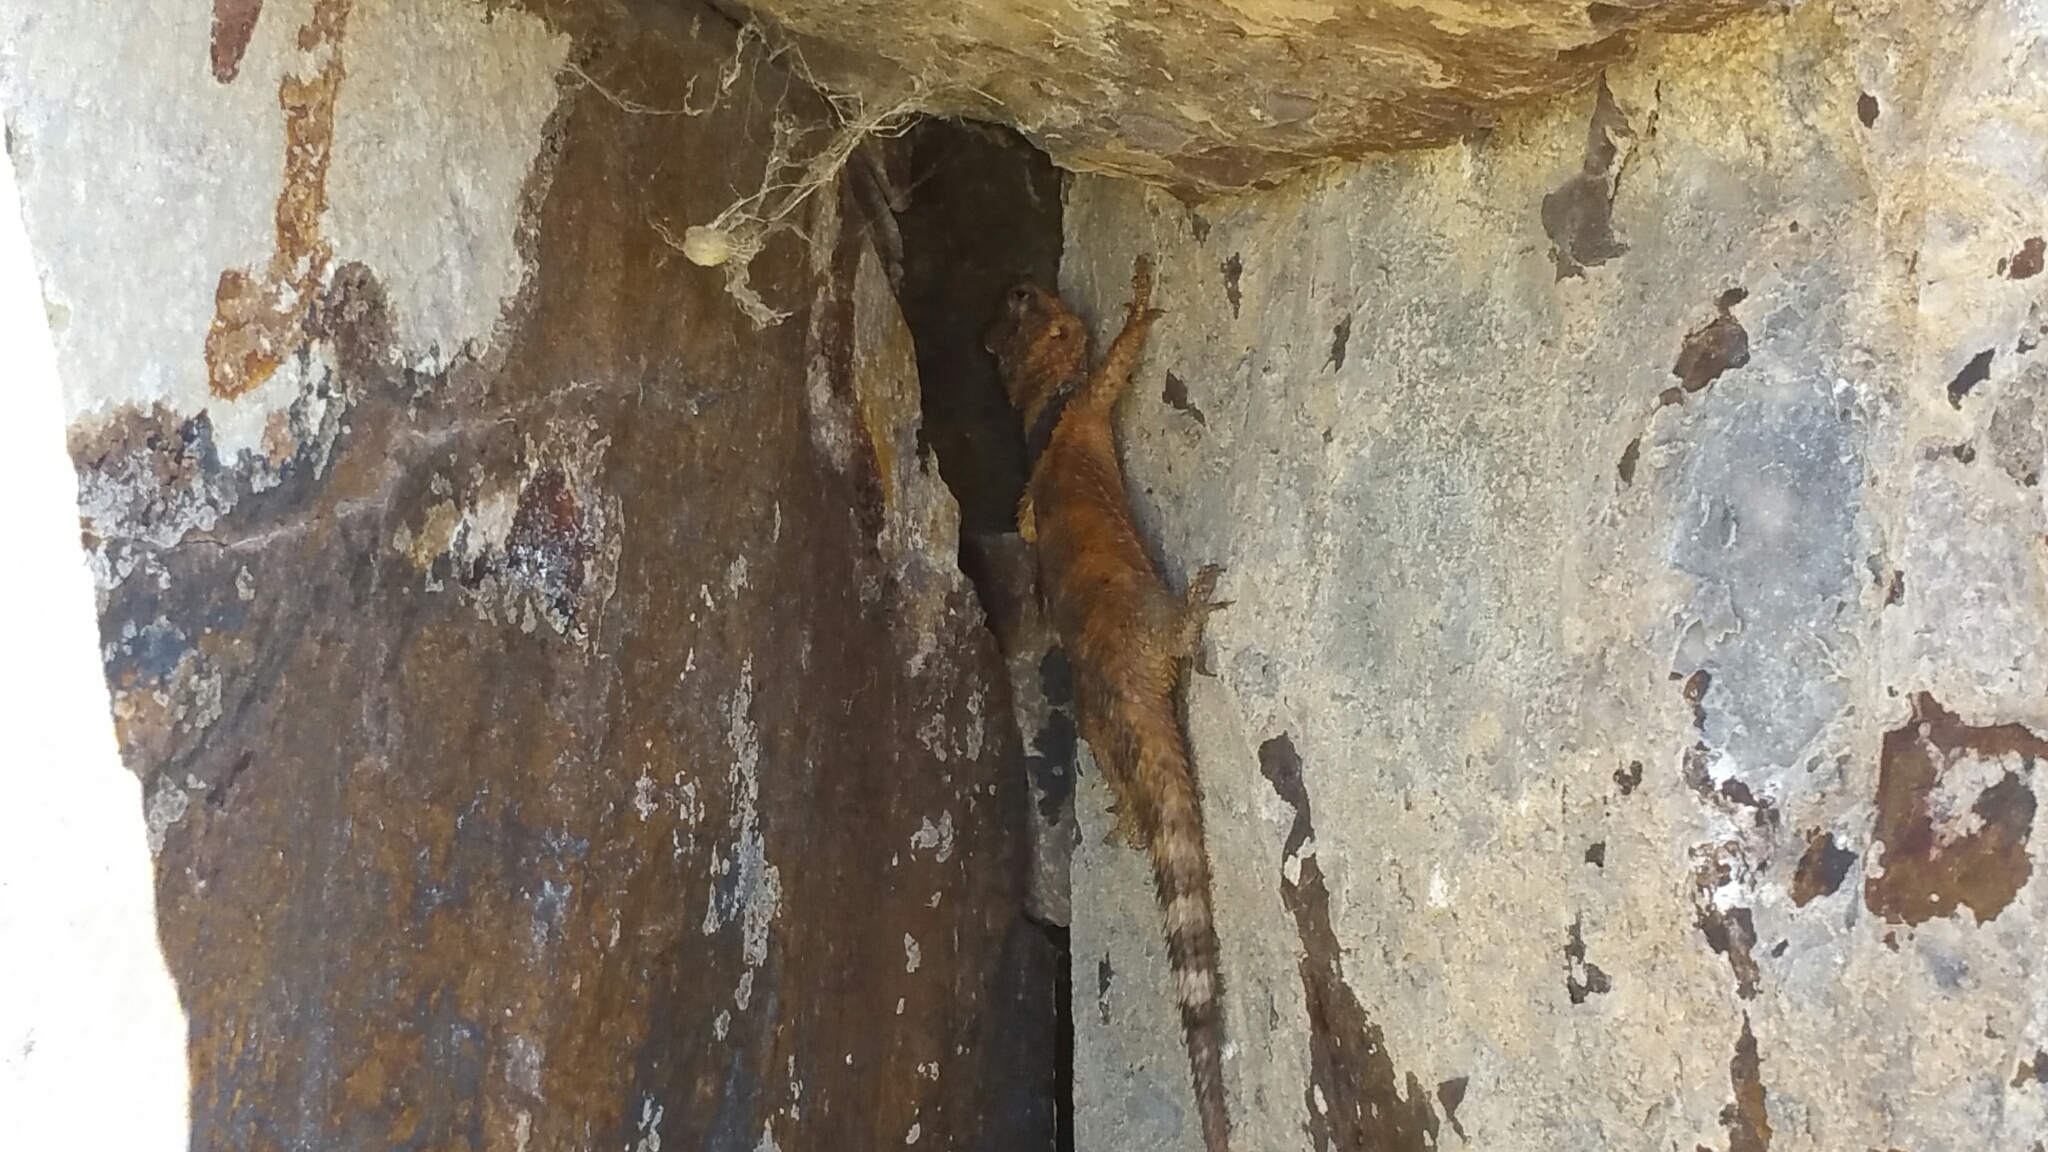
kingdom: Animalia
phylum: Chordata
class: Squamata
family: Phrynosomatidae
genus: Sceloporus
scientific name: Sceloporus poinsettii
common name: Crevice spiny lizard
